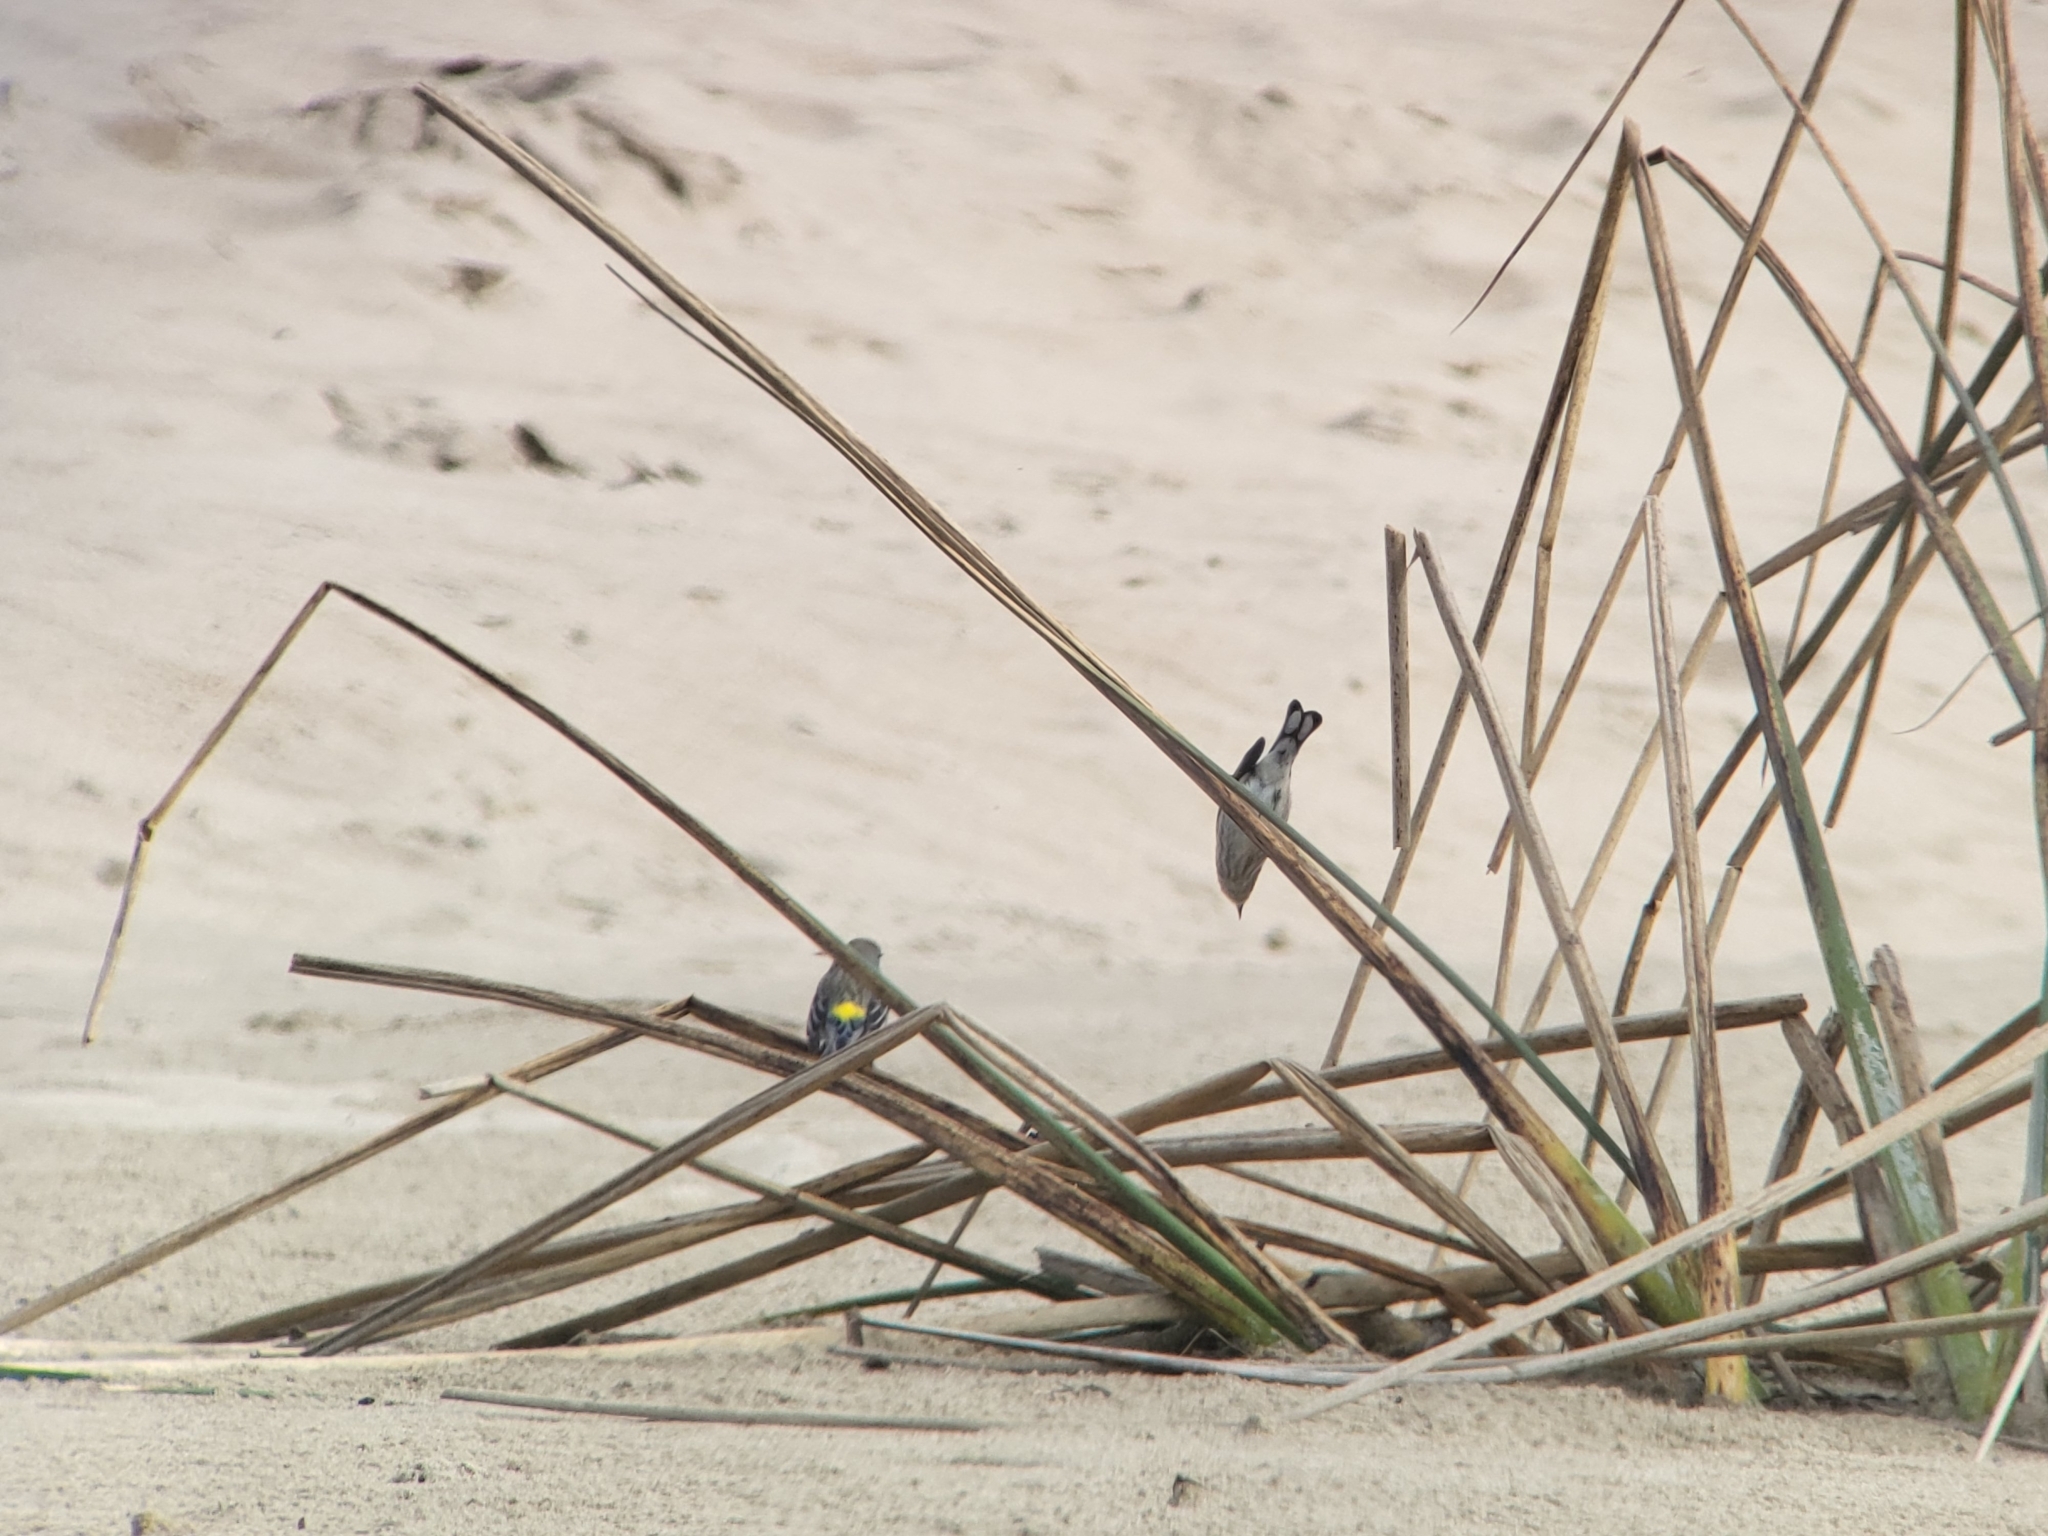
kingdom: Animalia
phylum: Chordata
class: Aves
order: Passeriformes
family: Parulidae
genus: Setophaga
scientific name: Setophaga coronata
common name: Myrtle warbler
